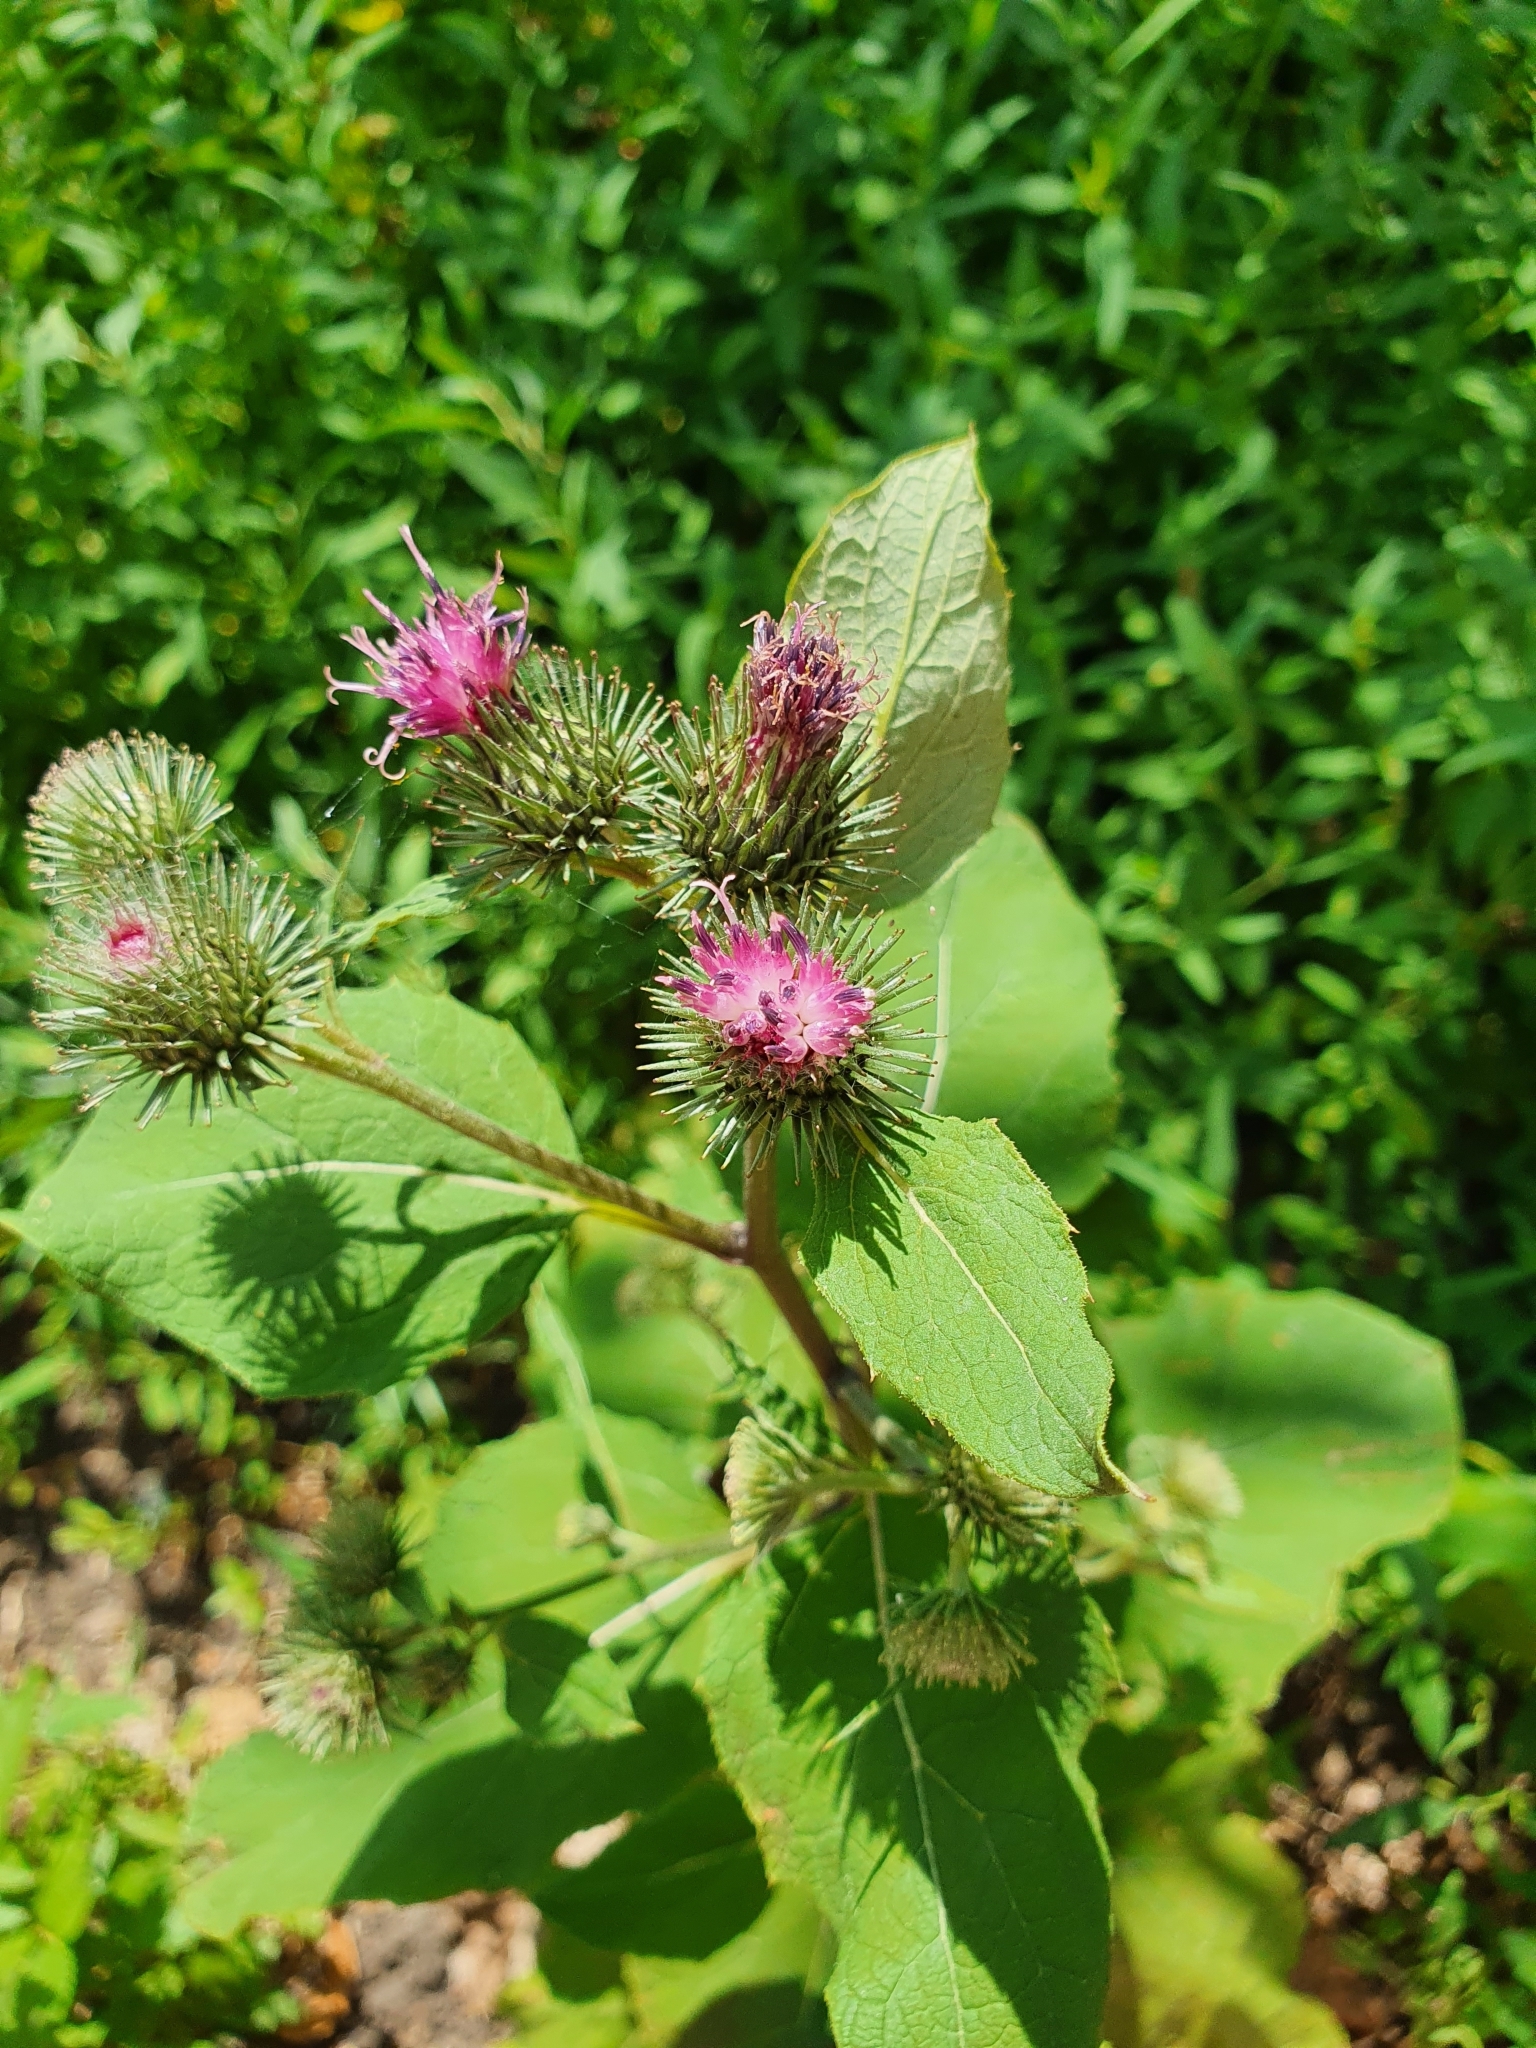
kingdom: Plantae
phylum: Tracheophyta
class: Magnoliopsida
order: Asterales
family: Asteraceae
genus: Arctium
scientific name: Arctium minus
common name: Lesser burdock
